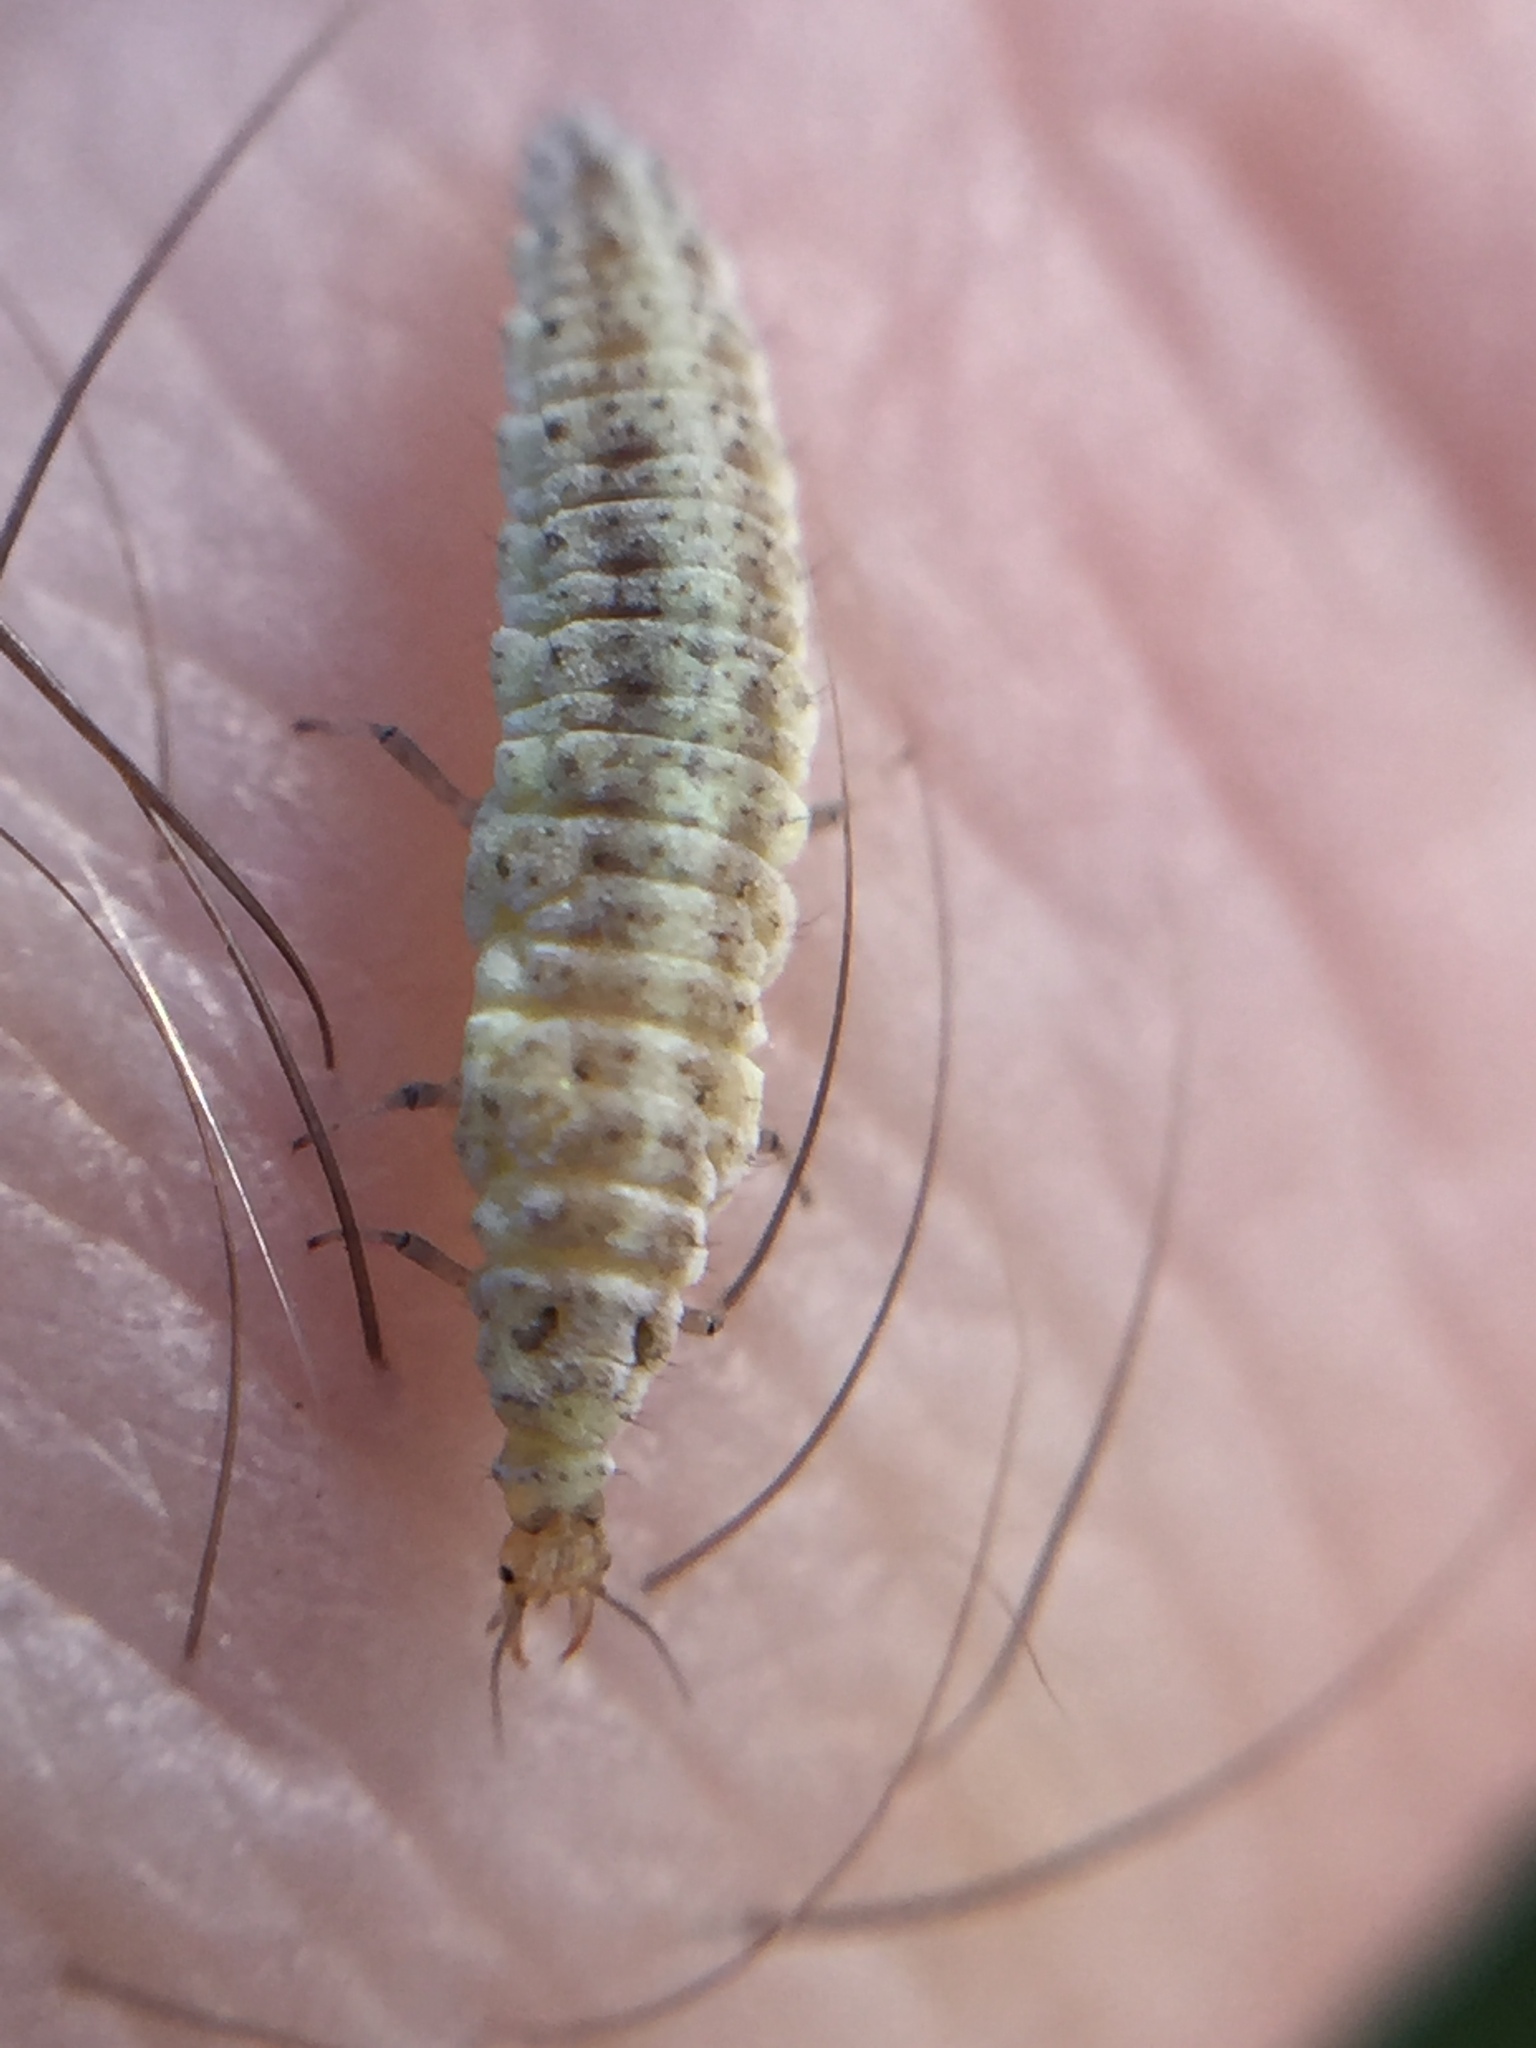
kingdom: Animalia
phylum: Arthropoda
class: Insecta
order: Neuroptera
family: Hemerobiidae
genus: Drepanacra
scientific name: Drepanacra binocula
